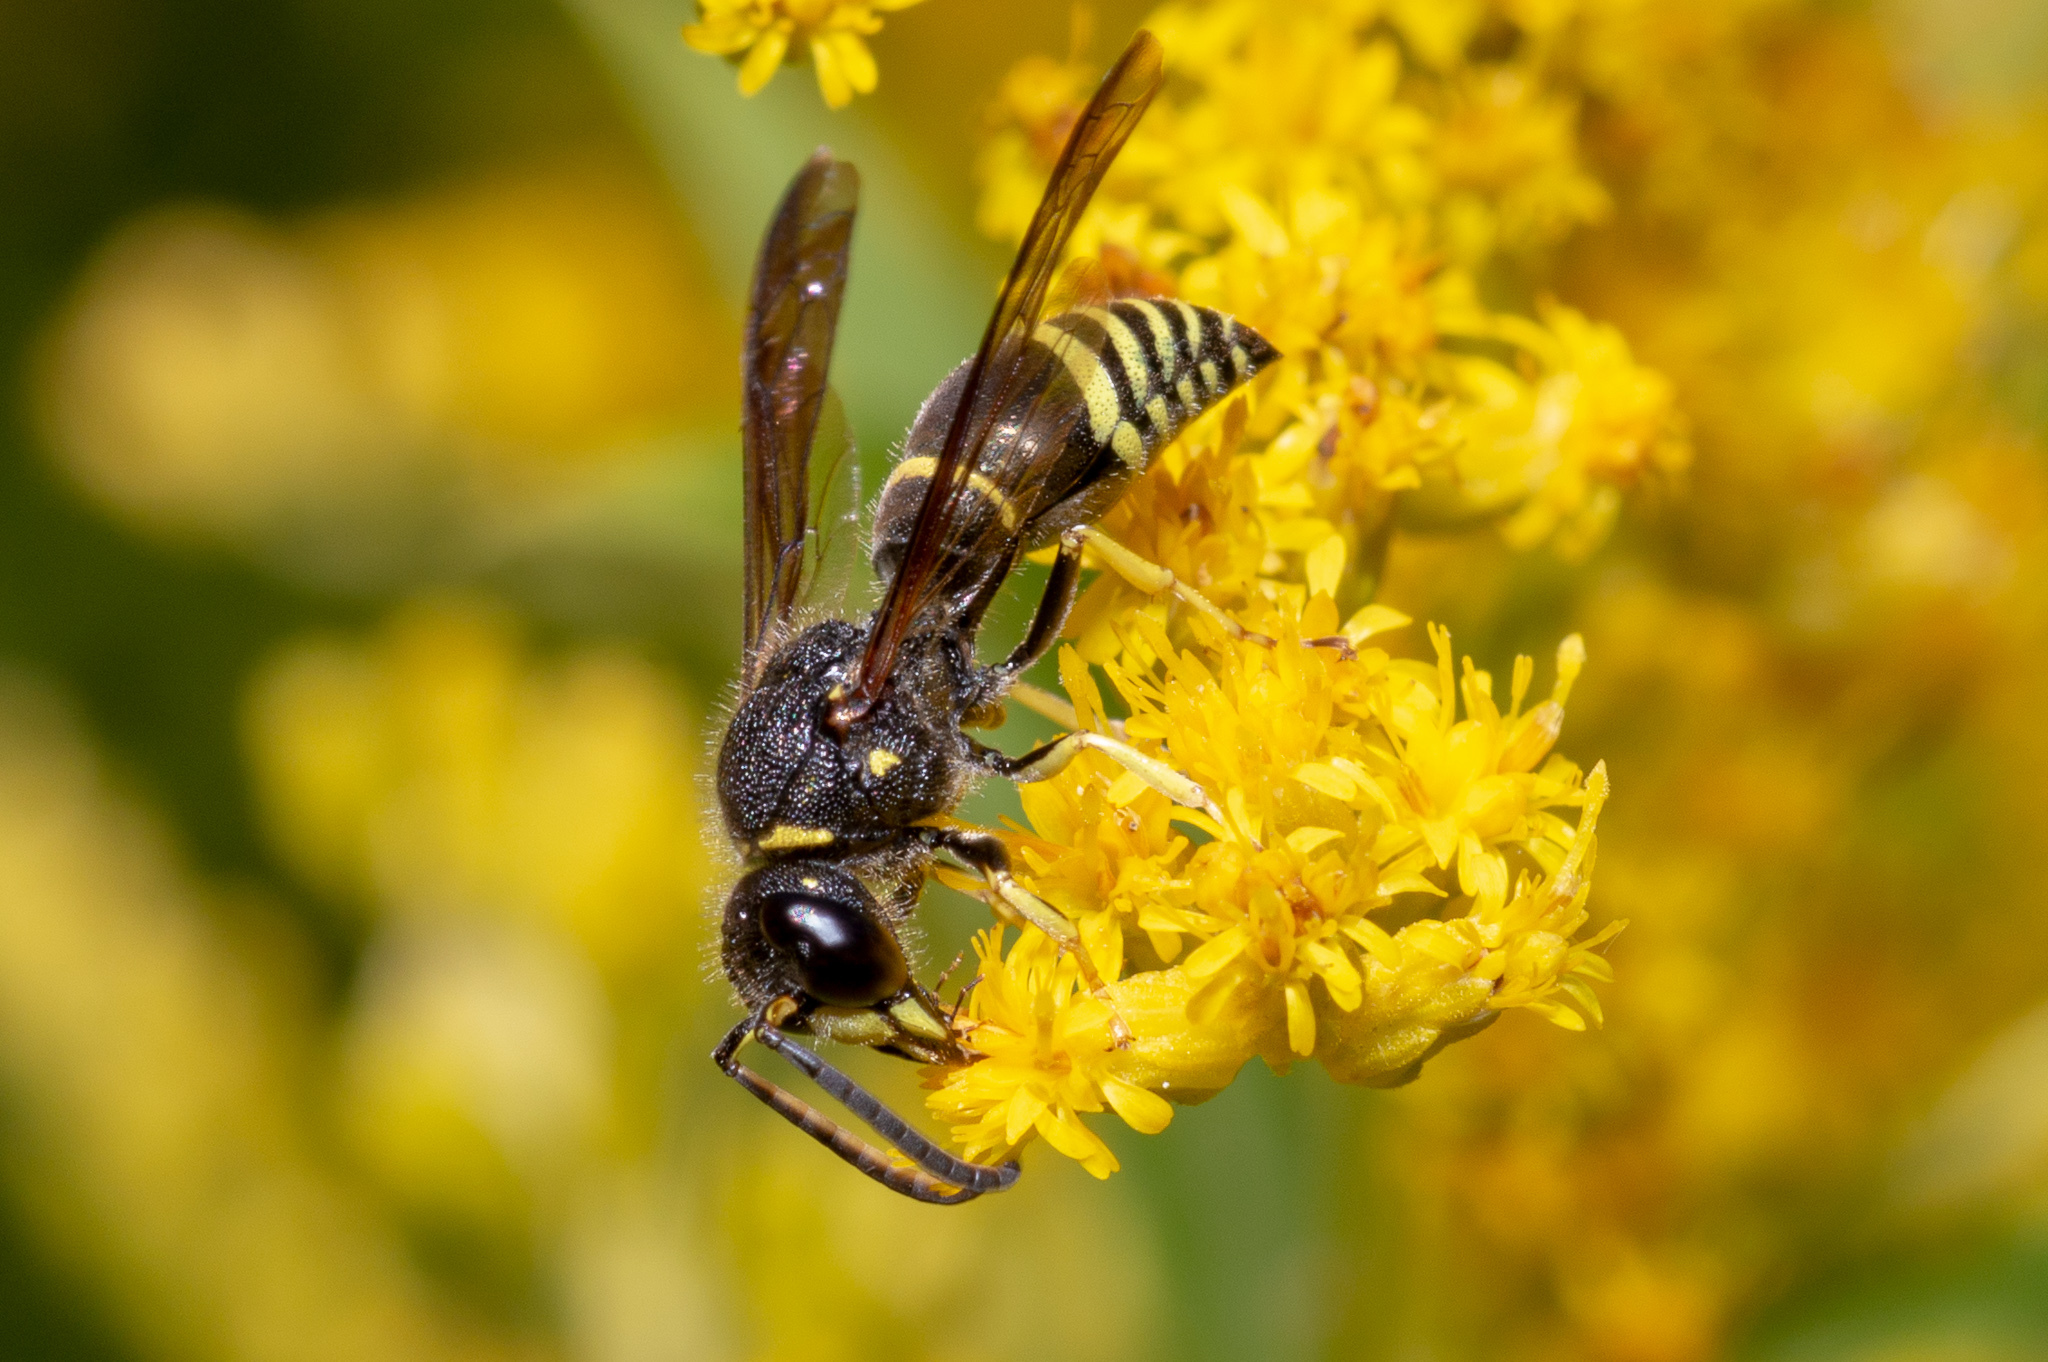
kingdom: Animalia
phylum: Arthropoda
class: Insecta
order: Hymenoptera
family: Vespidae
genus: Ancistrocerus
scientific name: Ancistrocerus
